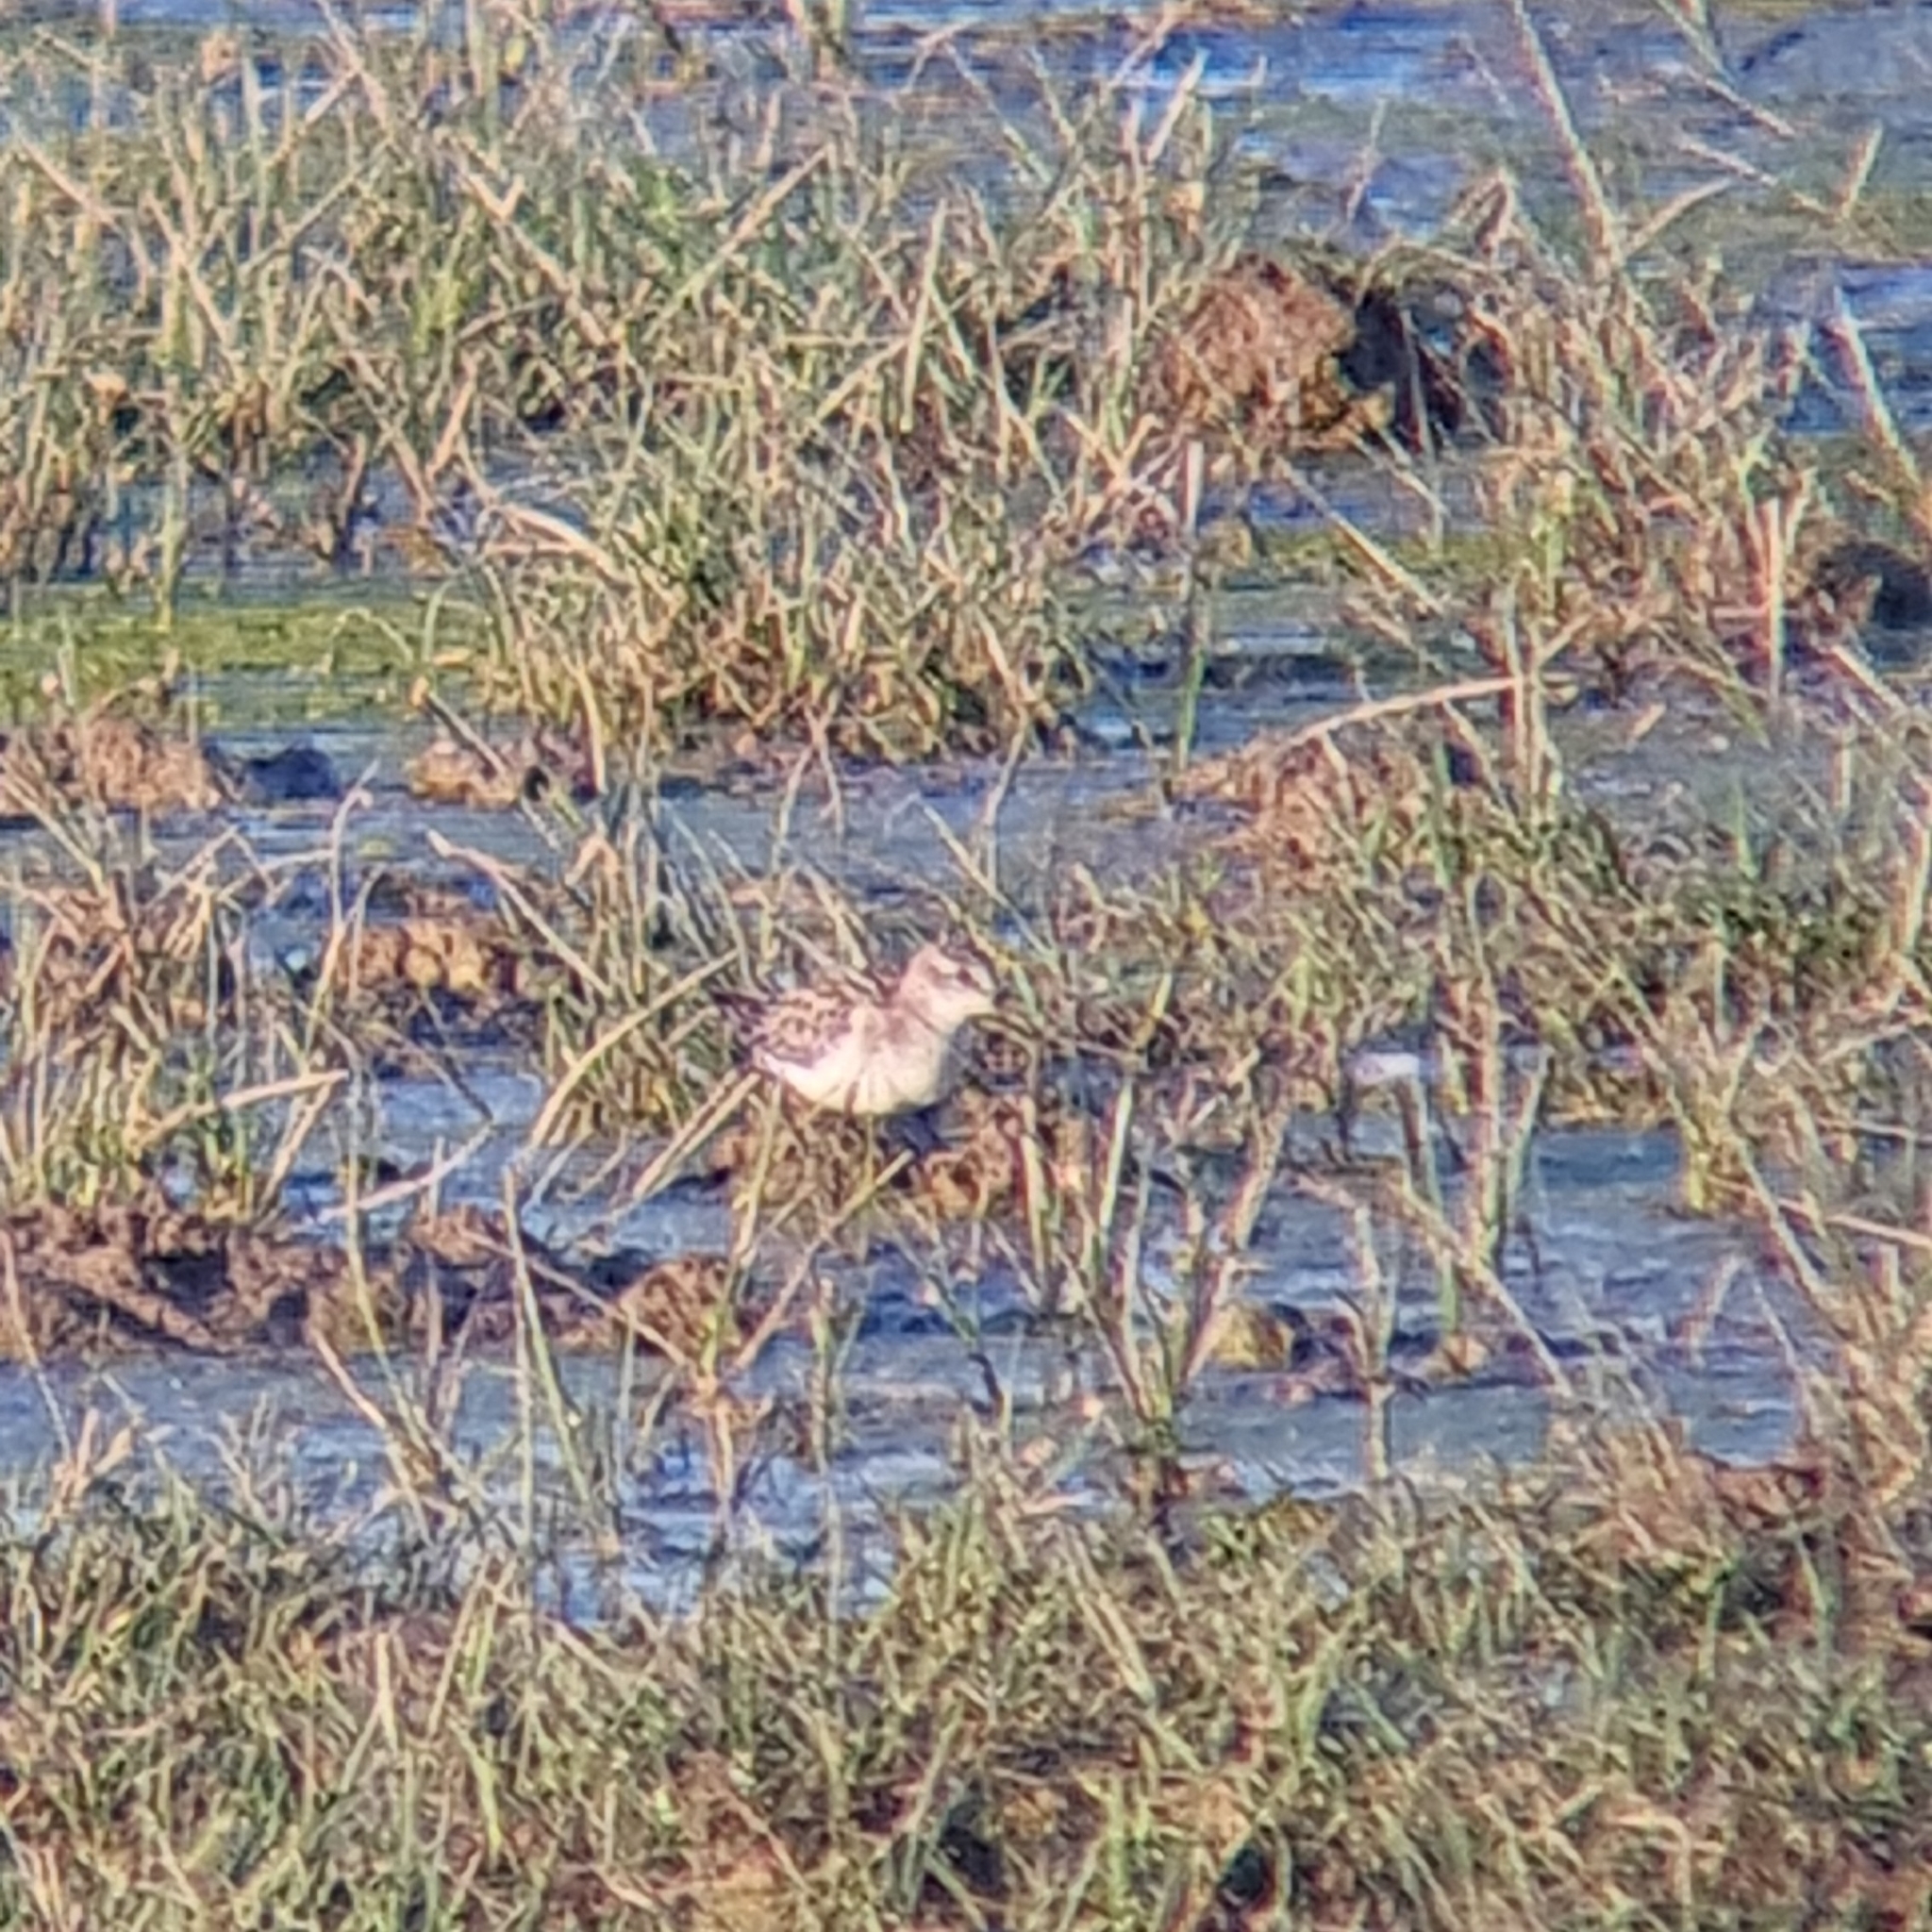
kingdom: Animalia
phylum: Chordata
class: Aves
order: Charadriiformes
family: Scolopacidae
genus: Calidris
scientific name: Calidris minuta
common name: Little stint
